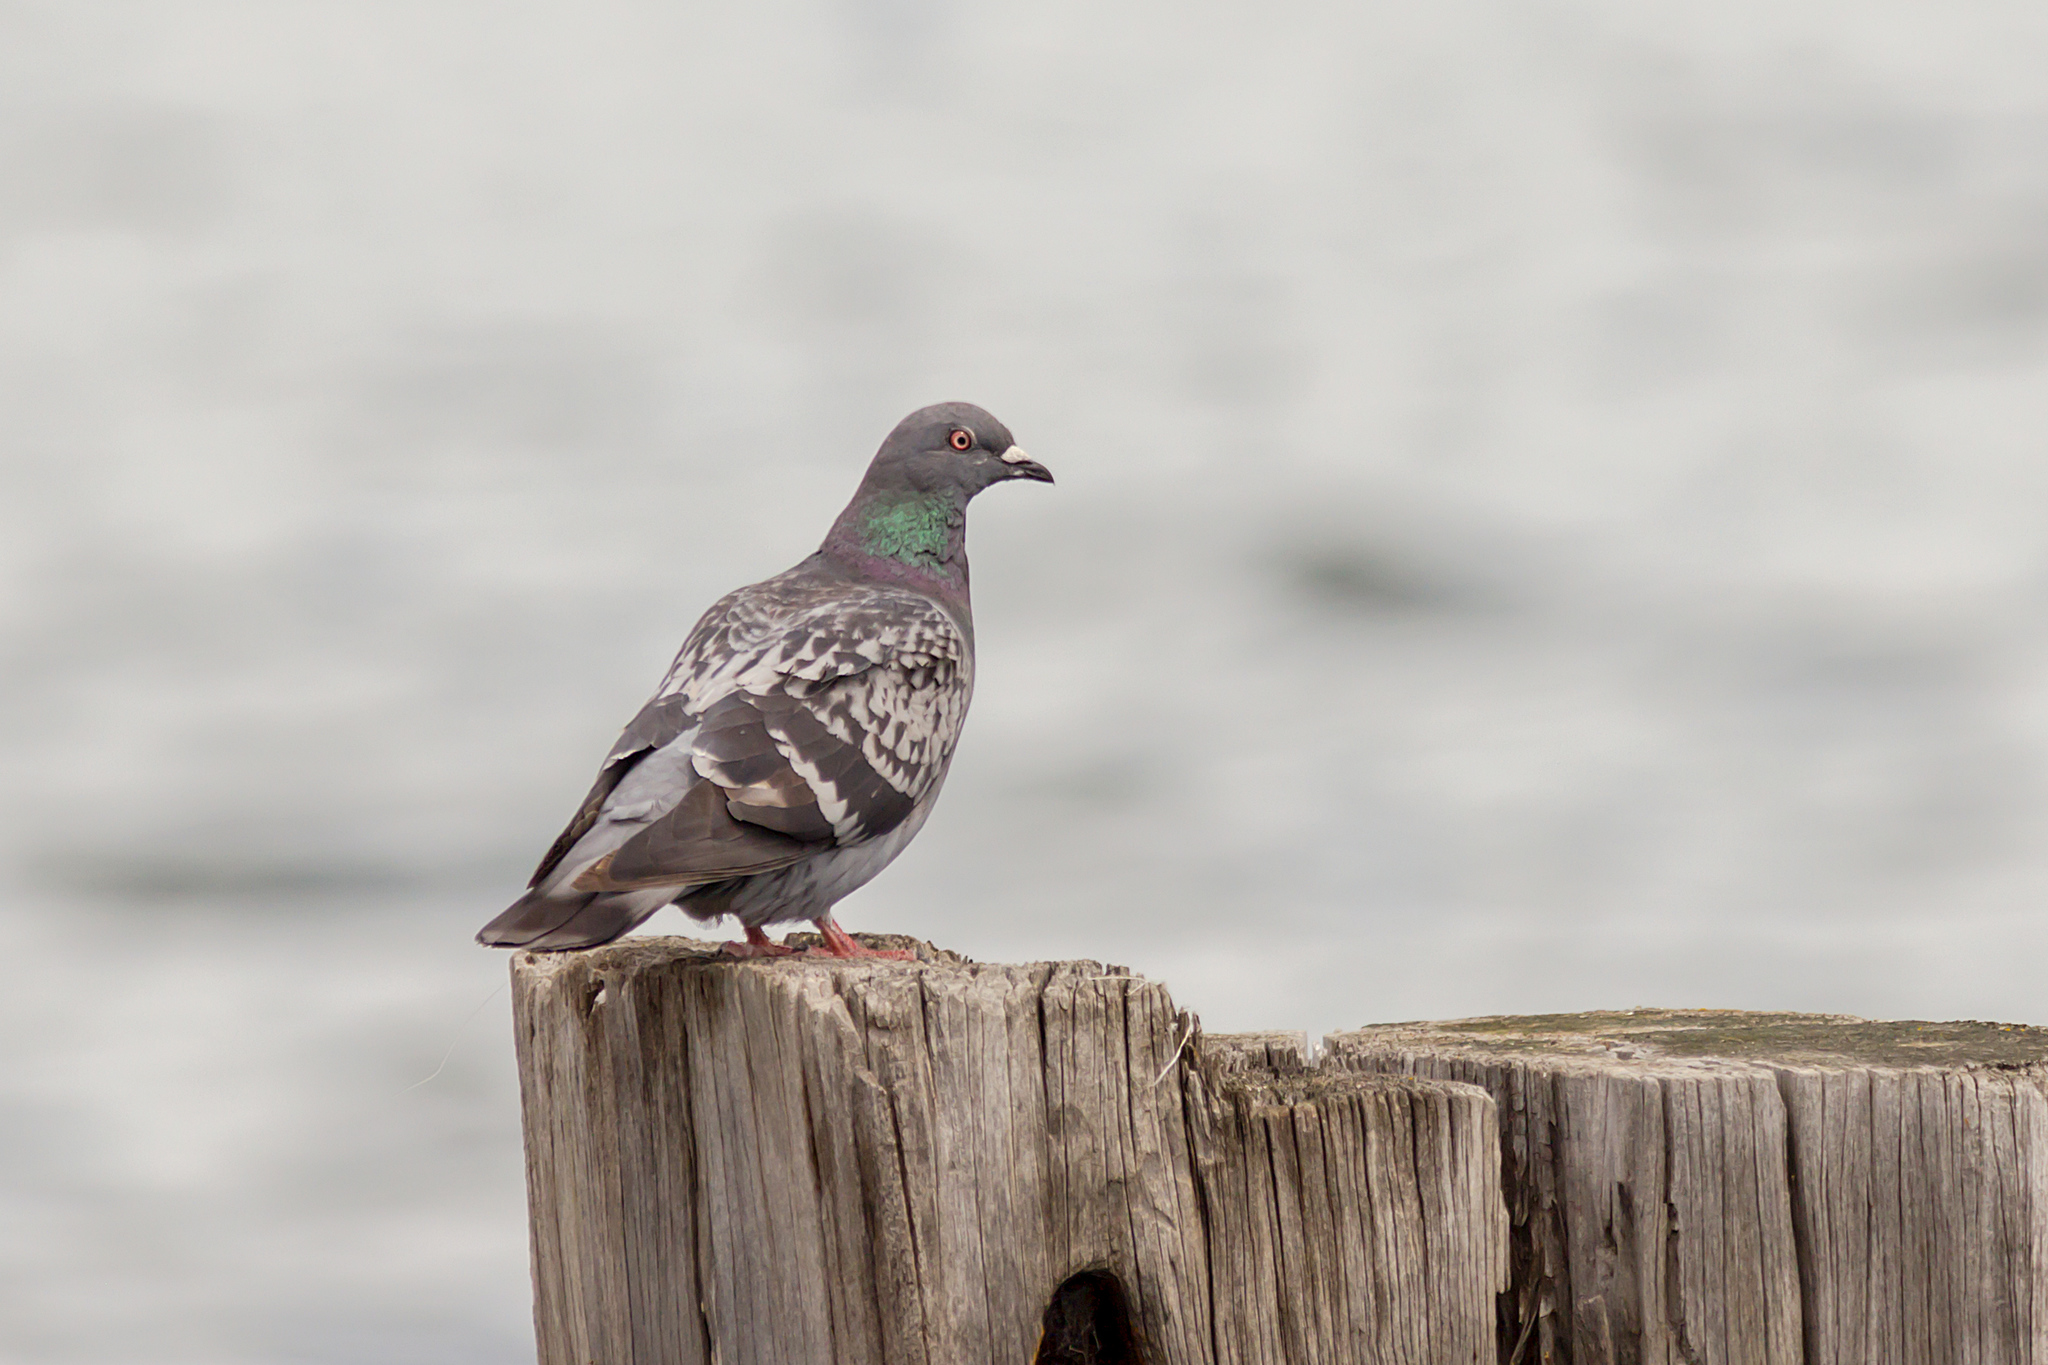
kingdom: Animalia
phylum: Chordata
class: Aves
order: Columbiformes
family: Columbidae
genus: Columba
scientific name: Columba livia
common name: Rock pigeon
